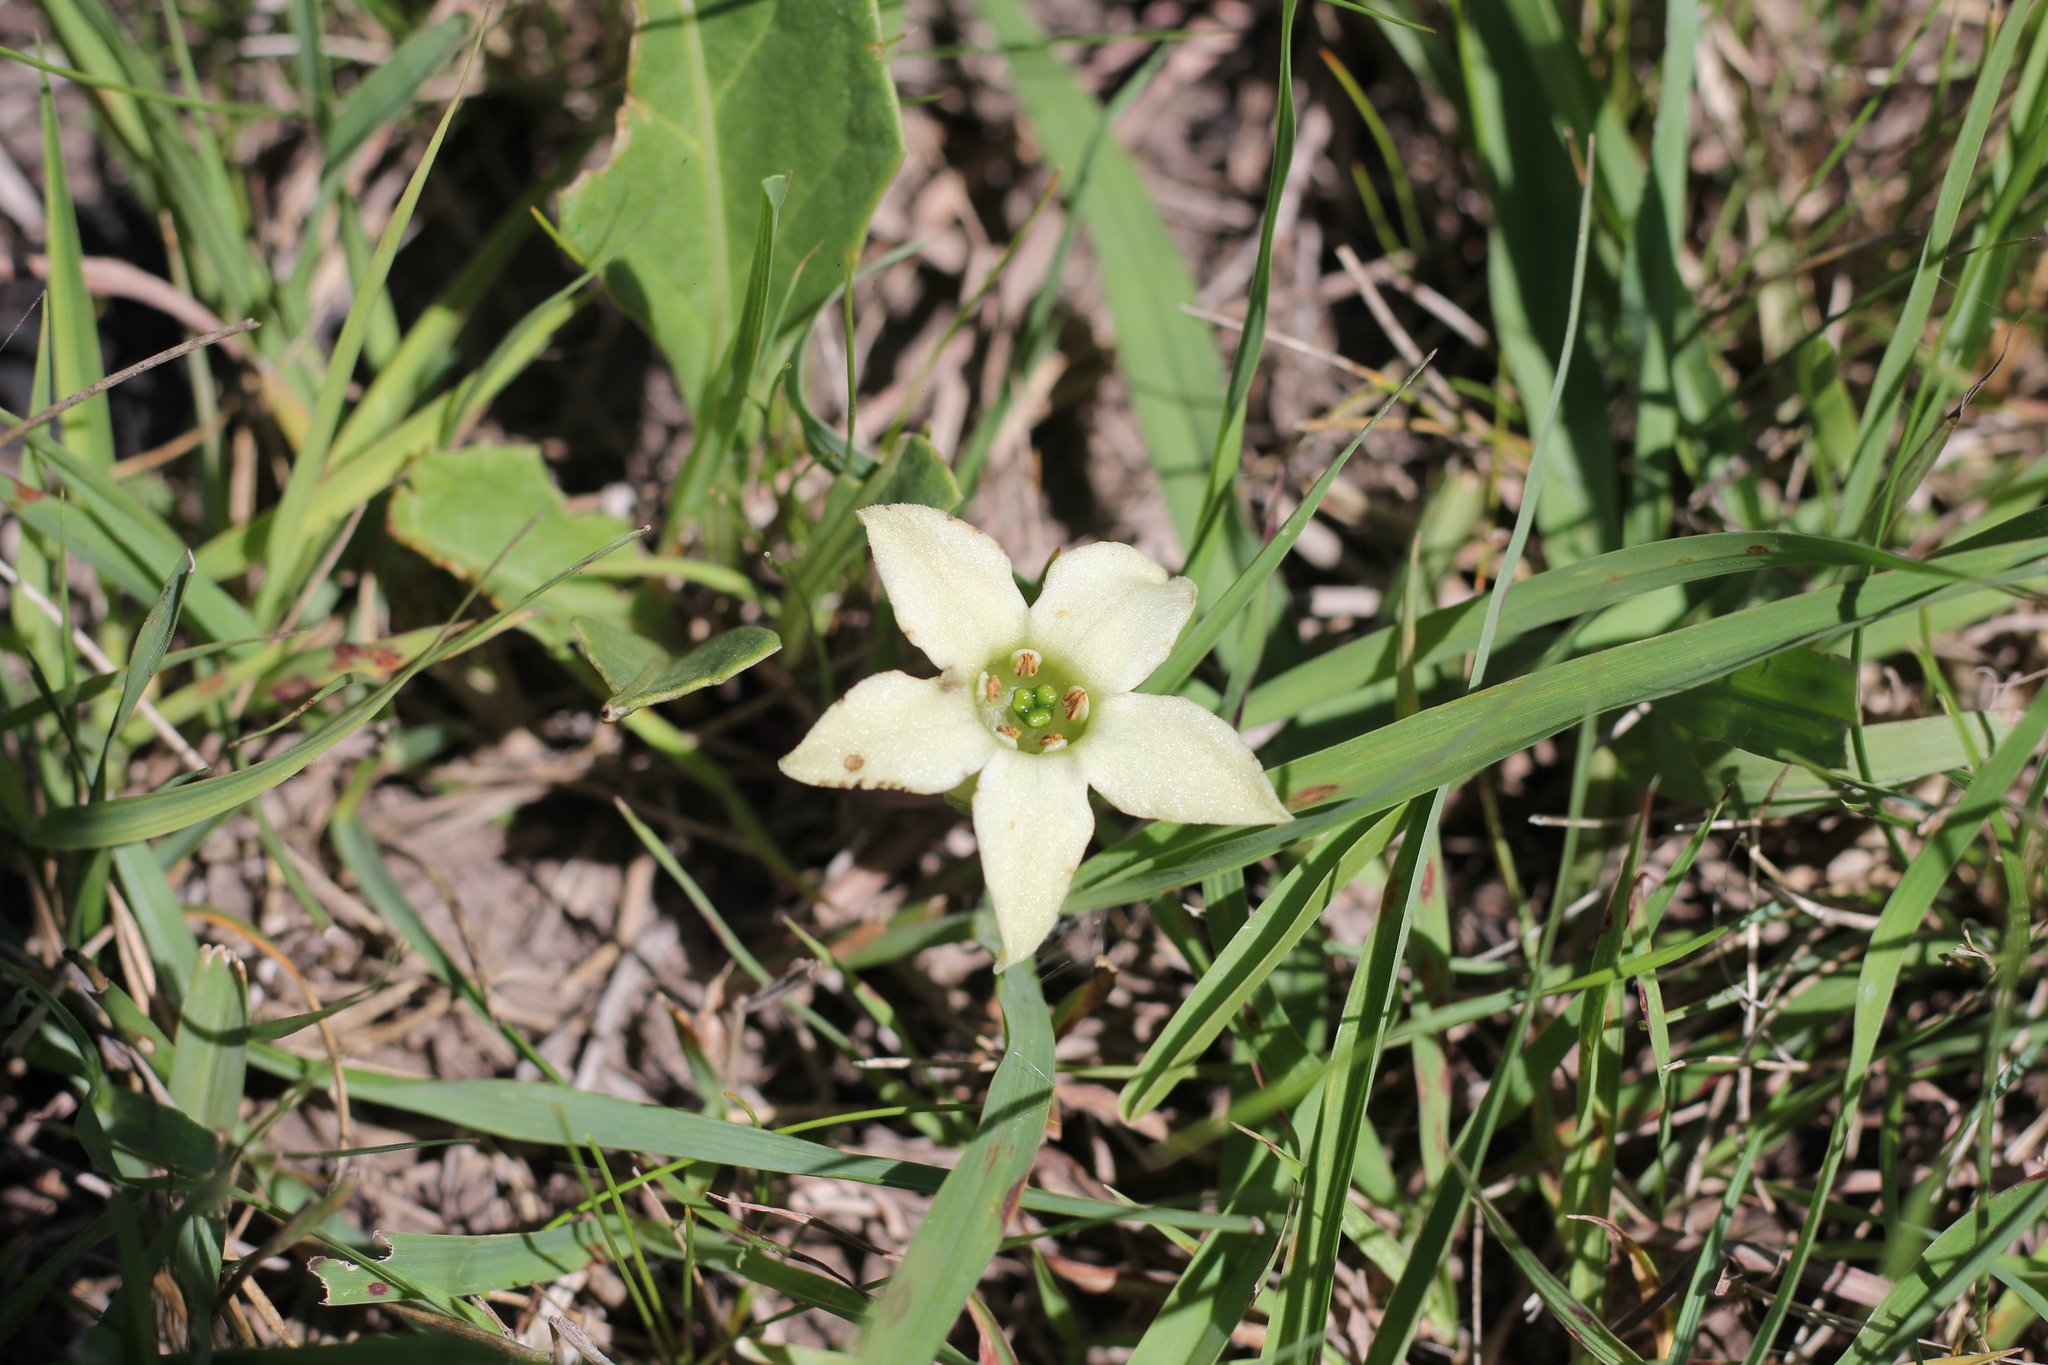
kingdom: Plantae
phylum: Tracheophyta
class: Magnoliopsida
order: Solanales
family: Solanaceae
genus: Jaborosa
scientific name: Jaborosa runcinata
